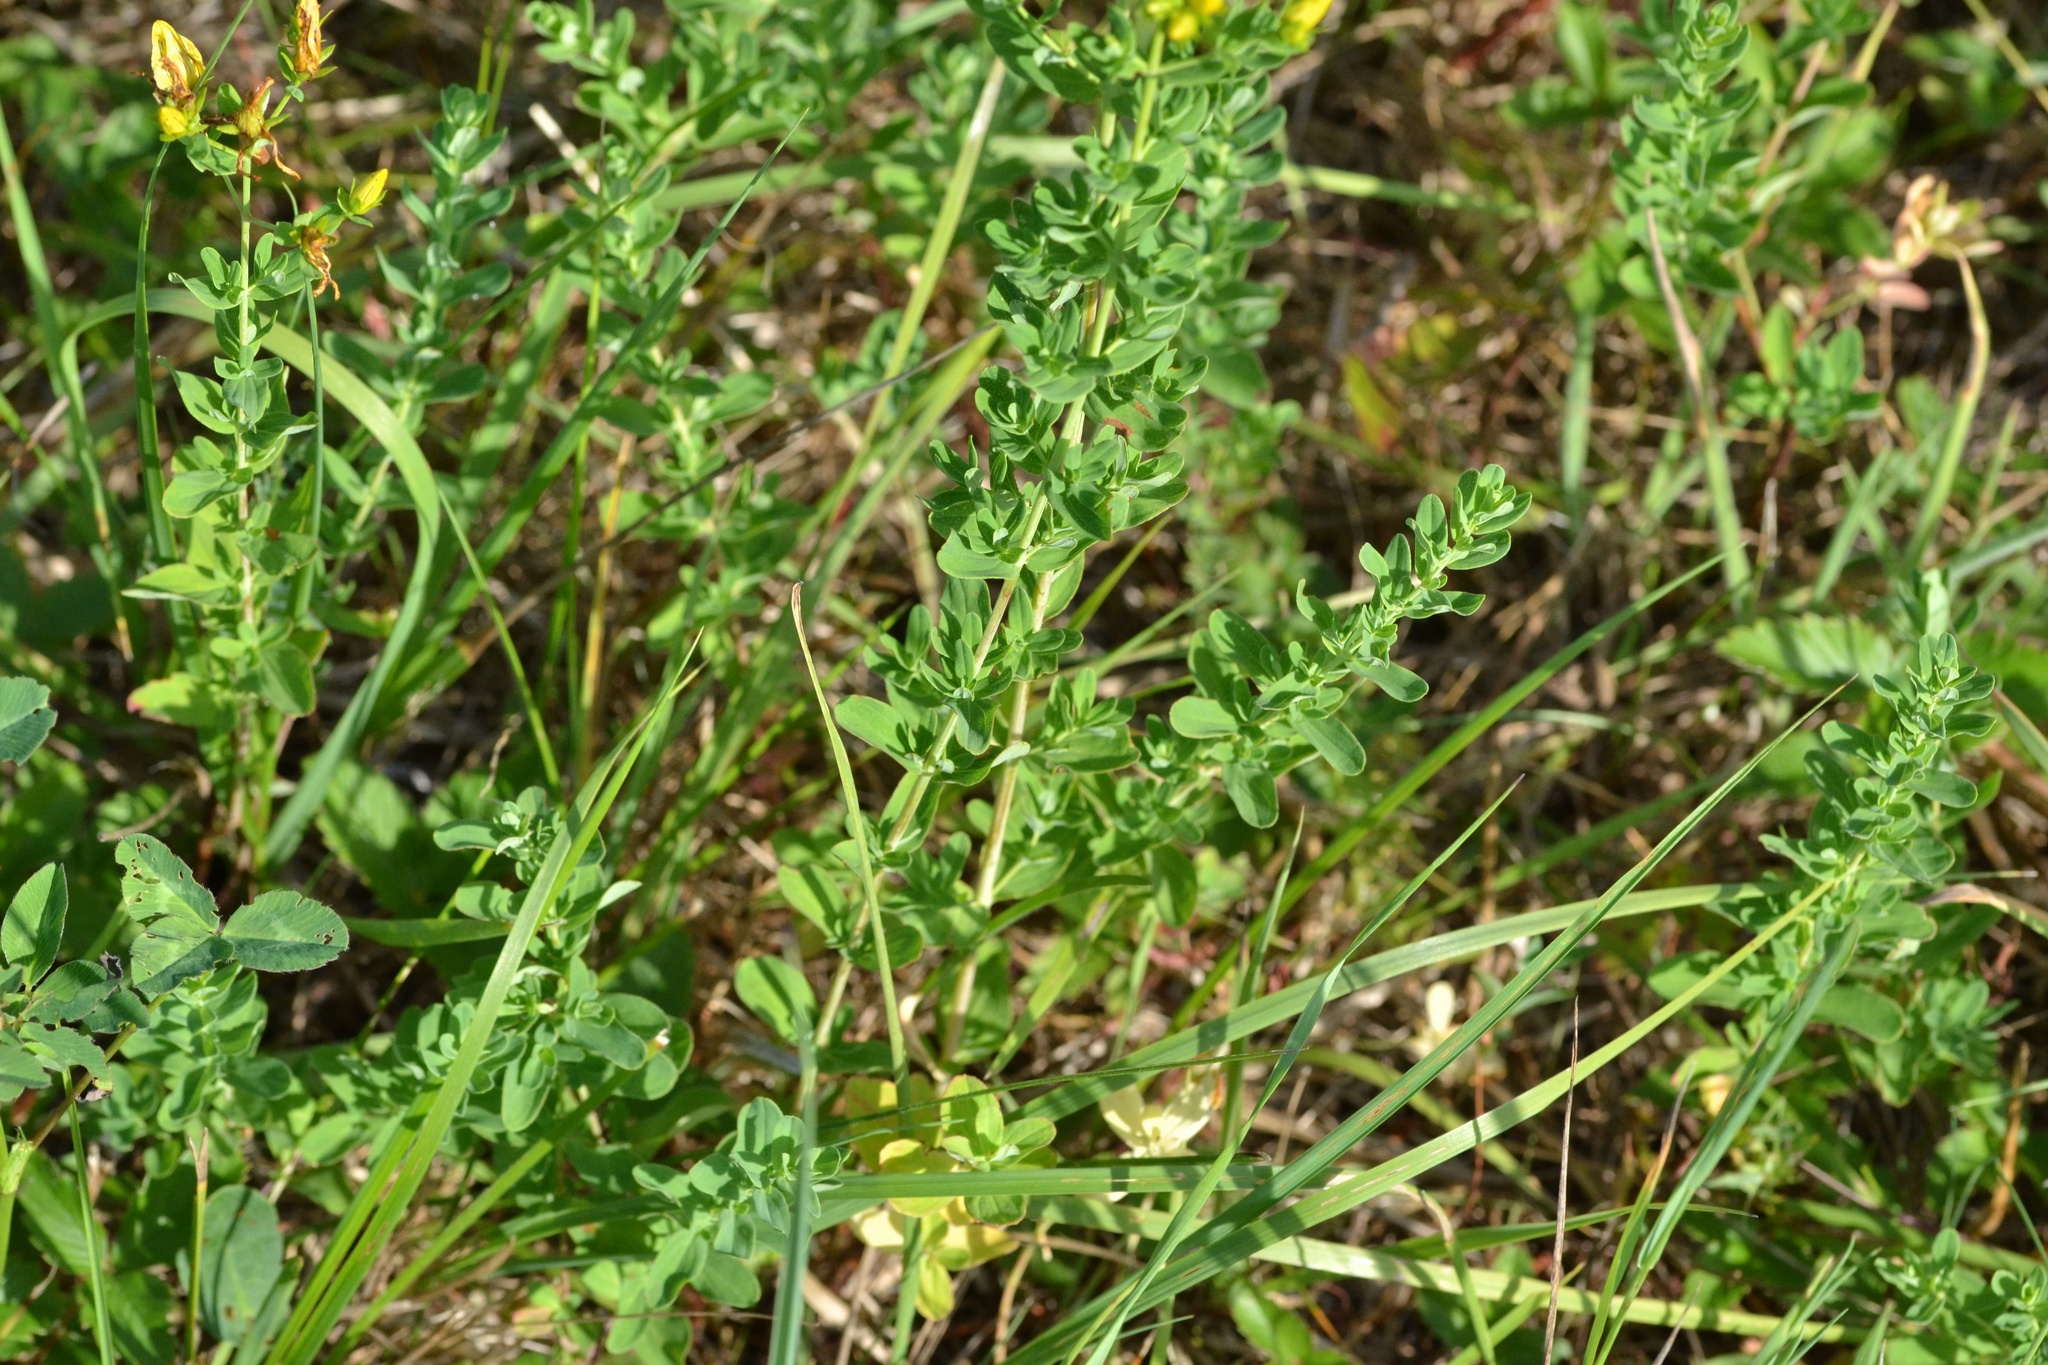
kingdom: Plantae
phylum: Tracheophyta
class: Magnoliopsida
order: Malpighiales
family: Hypericaceae
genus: Hypericum
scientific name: Hypericum perforatum
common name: Common st. johnswort
